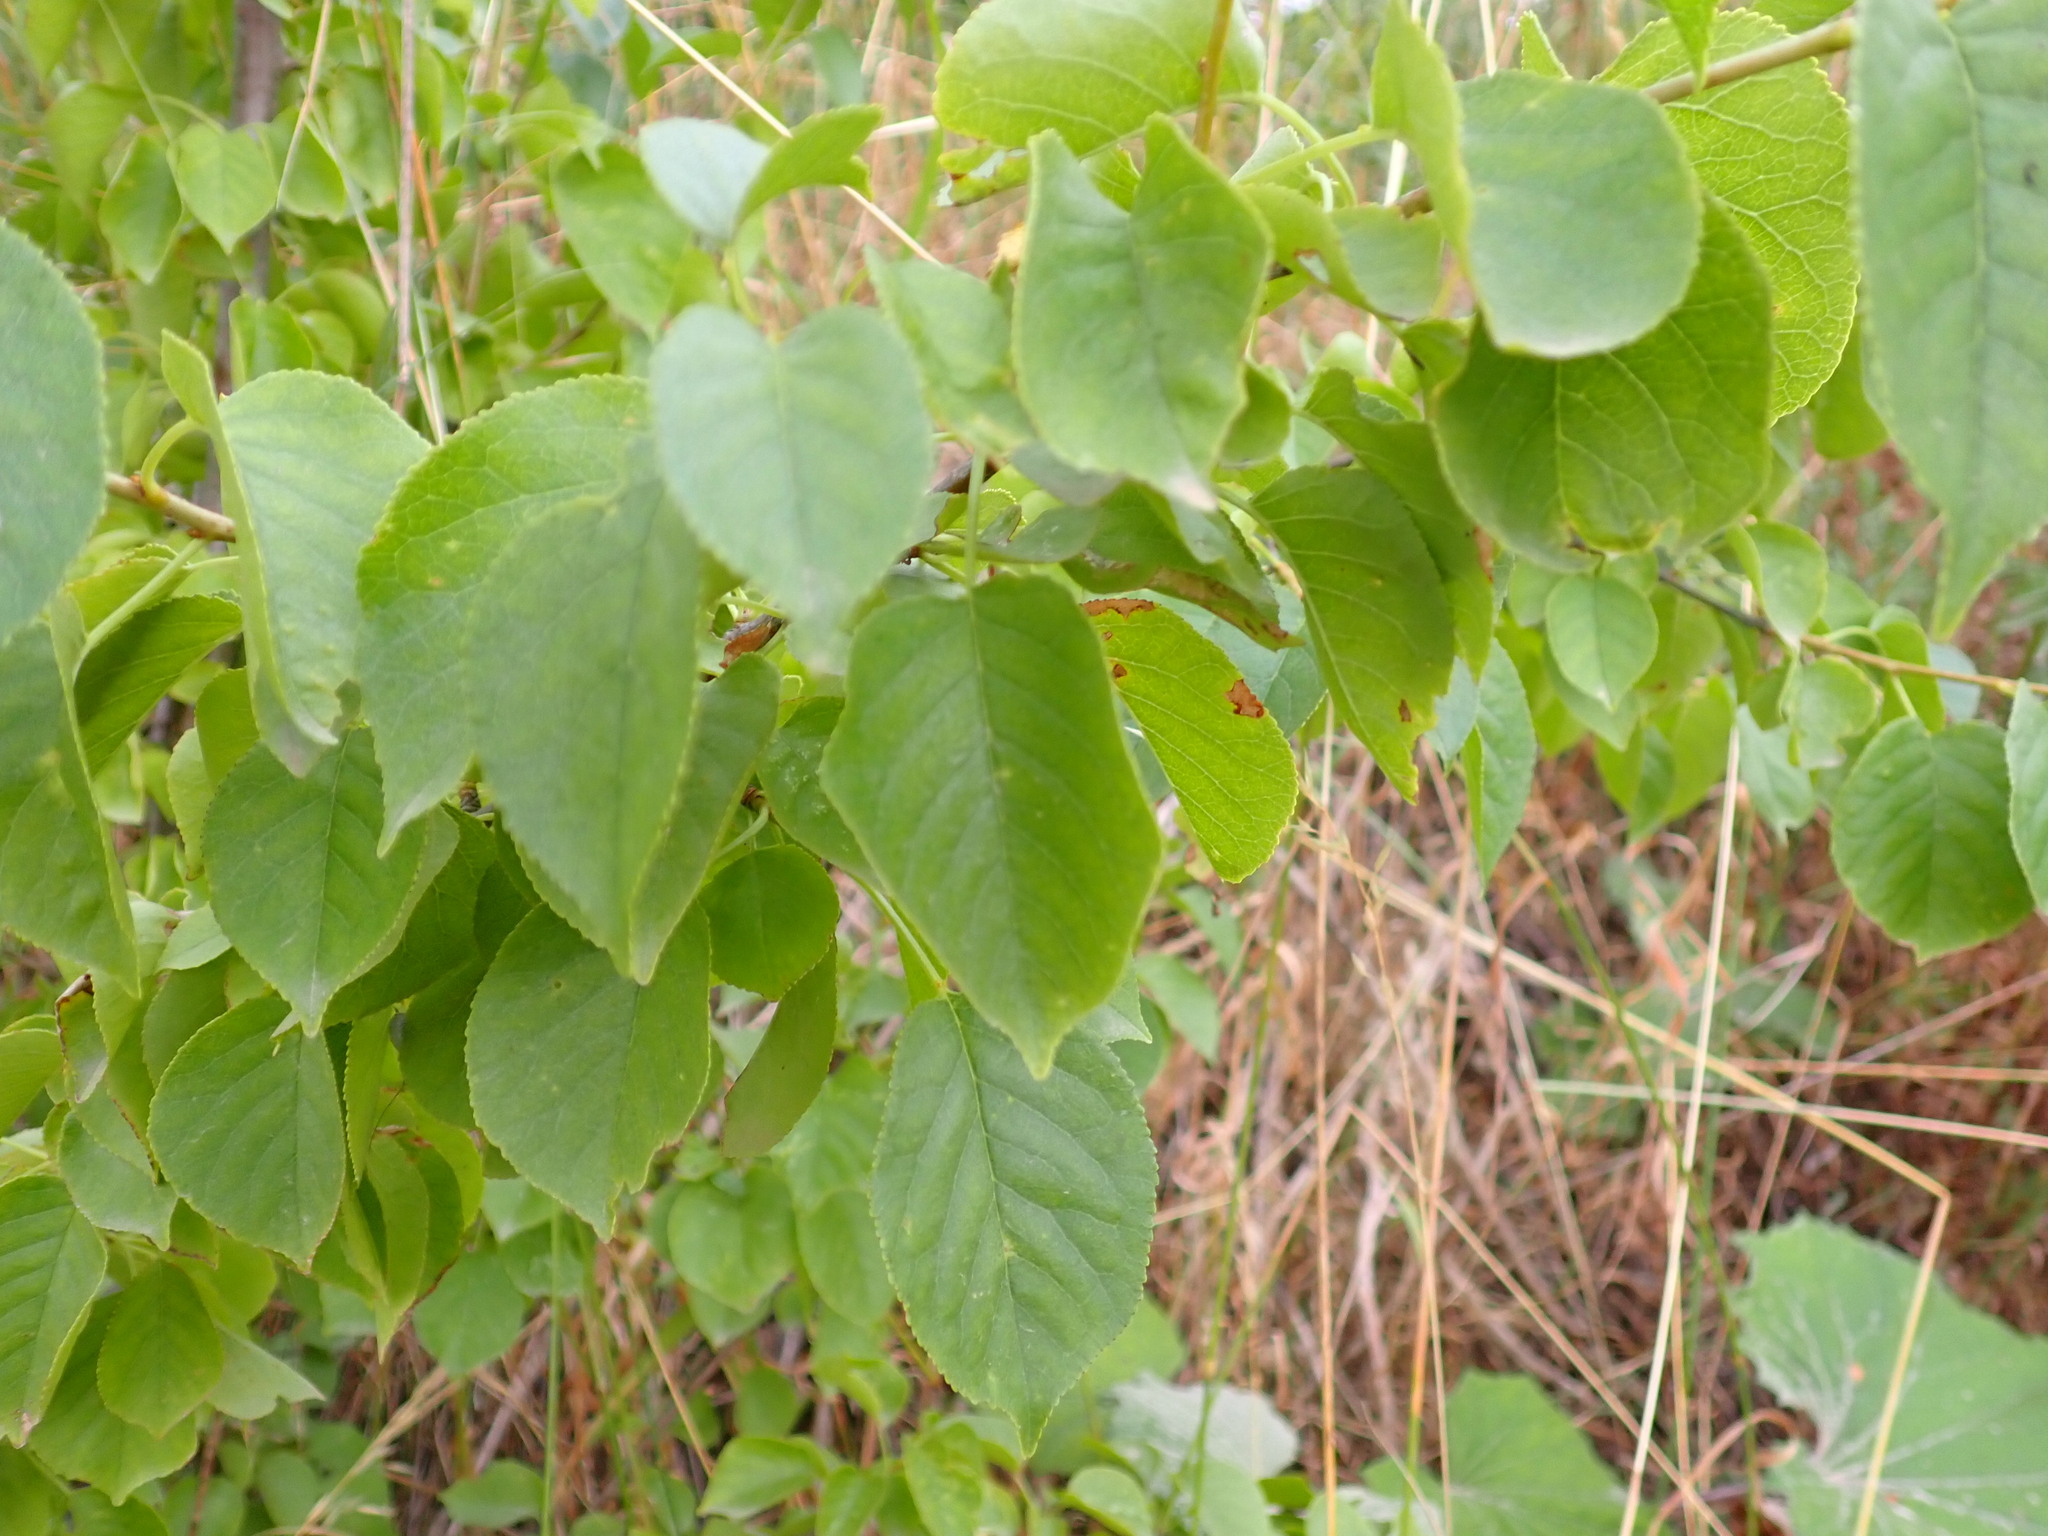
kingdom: Plantae
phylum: Tracheophyta
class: Magnoliopsida
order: Rosales
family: Rosaceae
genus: Prunus
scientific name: Prunus mahaleb
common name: Mahaleb cherry
